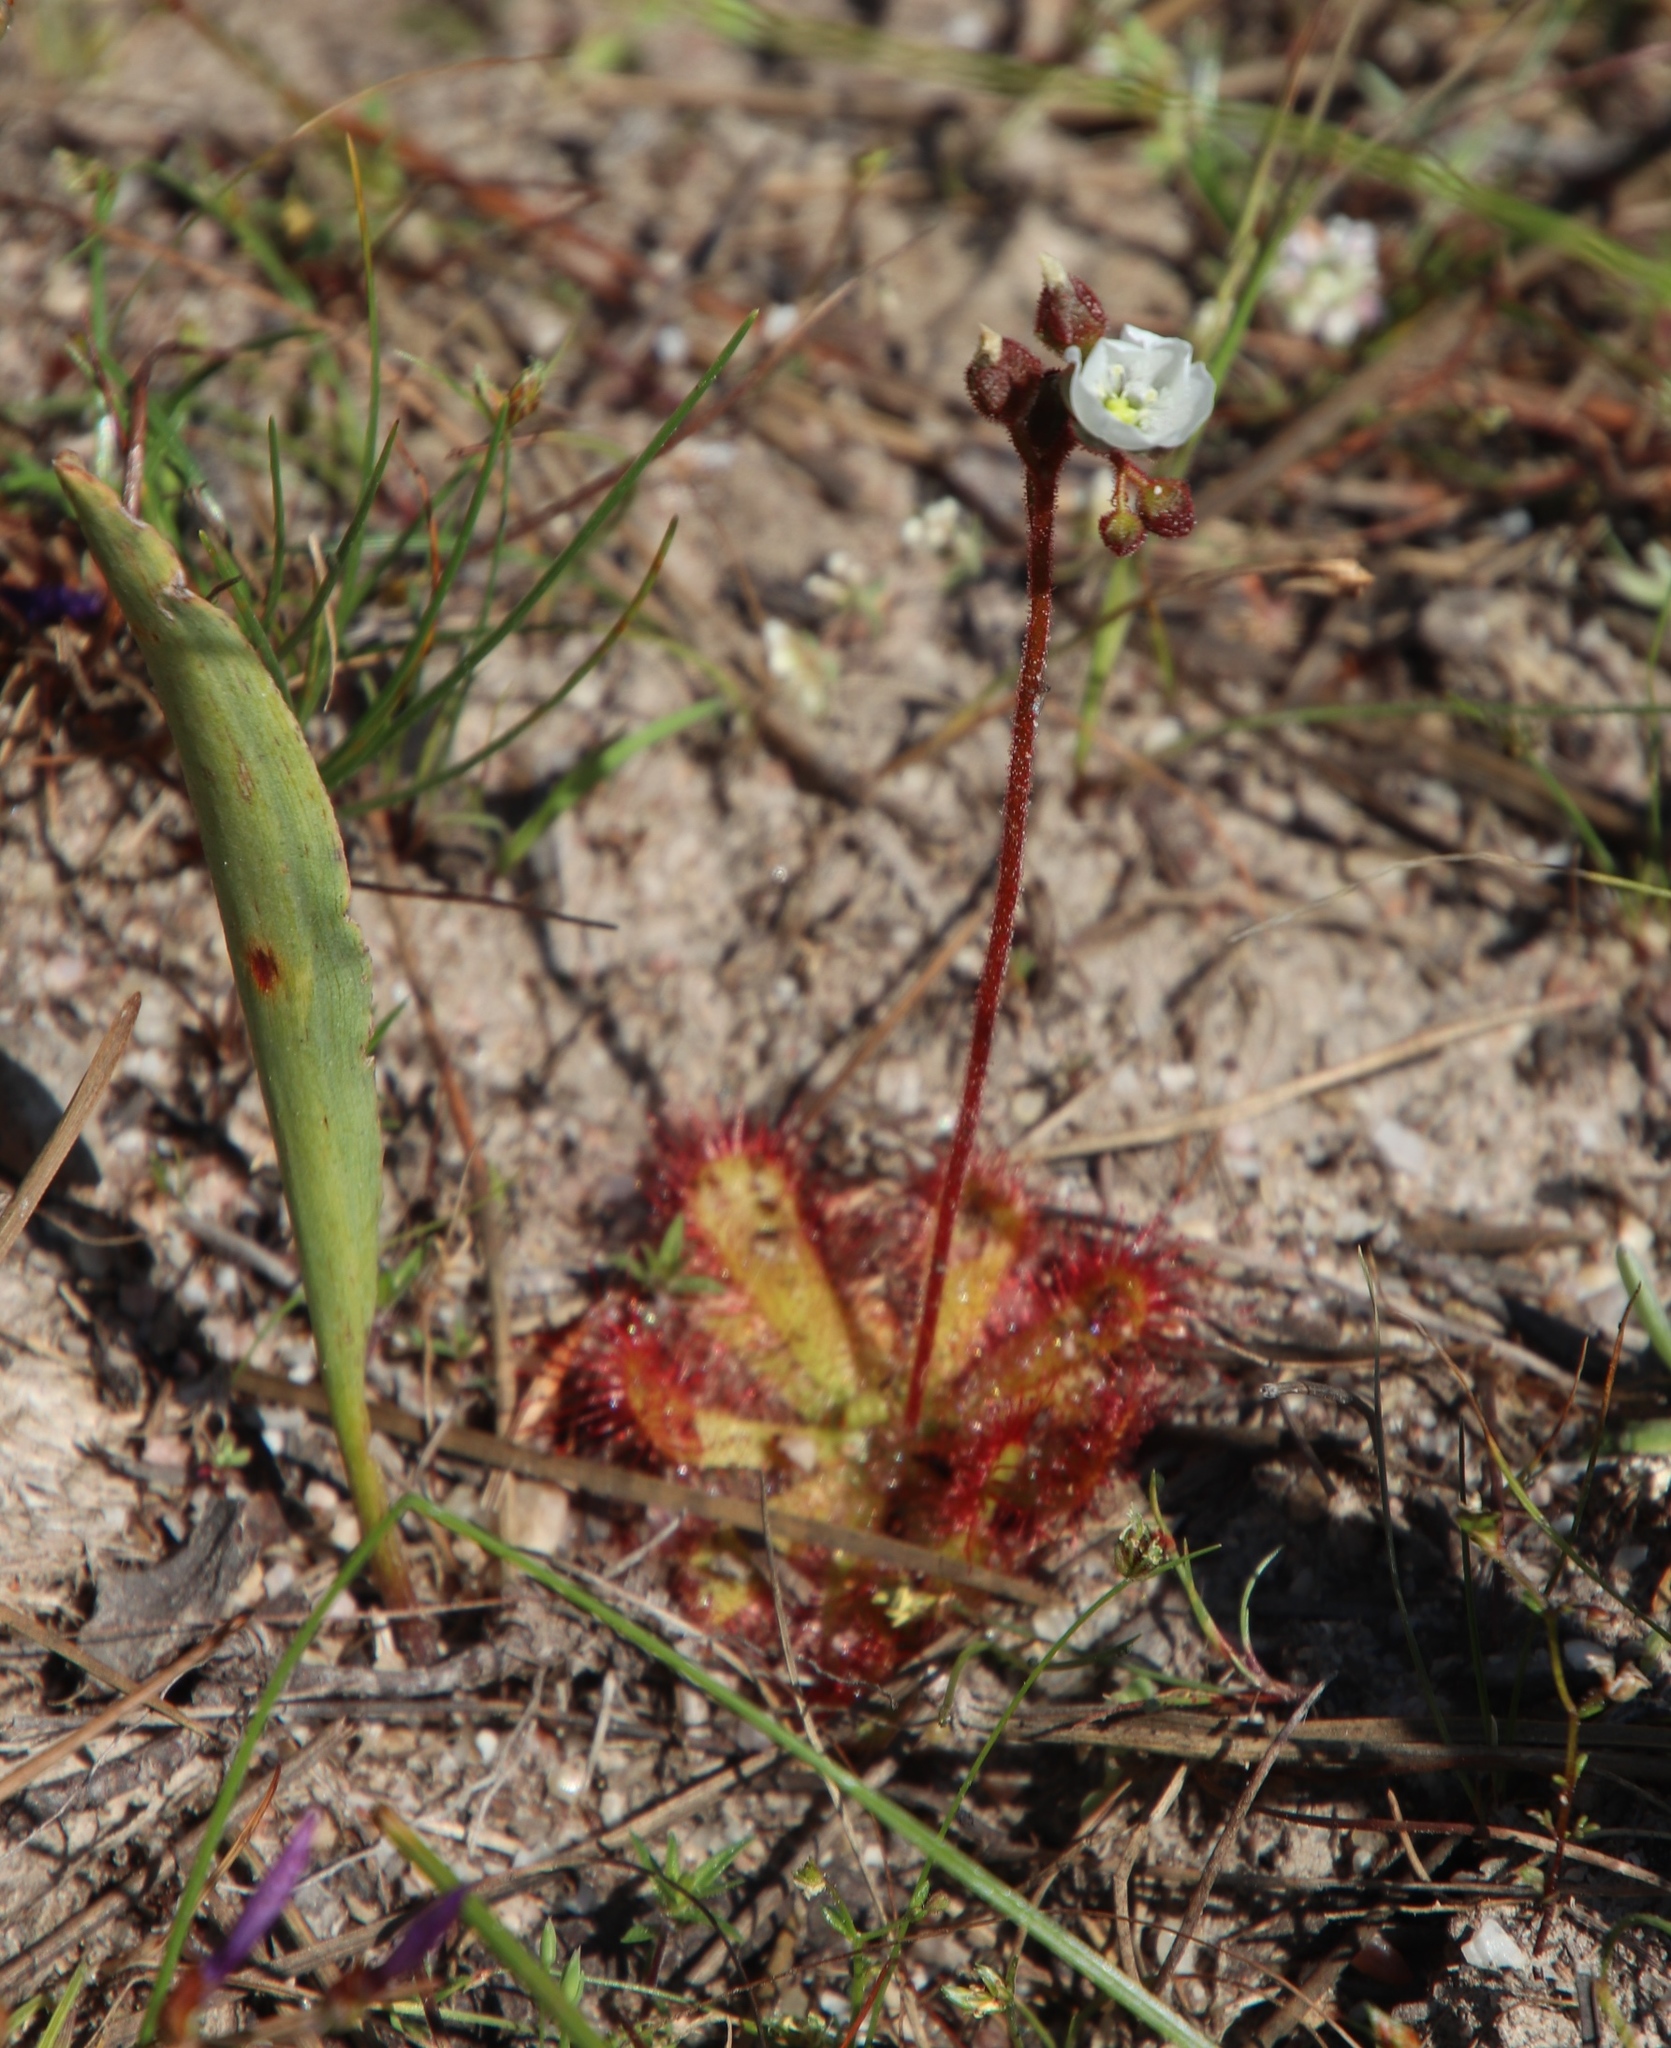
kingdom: Plantae
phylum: Tracheophyta
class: Magnoliopsida
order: Caryophyllales
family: Droseraceae
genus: Drosera
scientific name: Drosera trinervia
